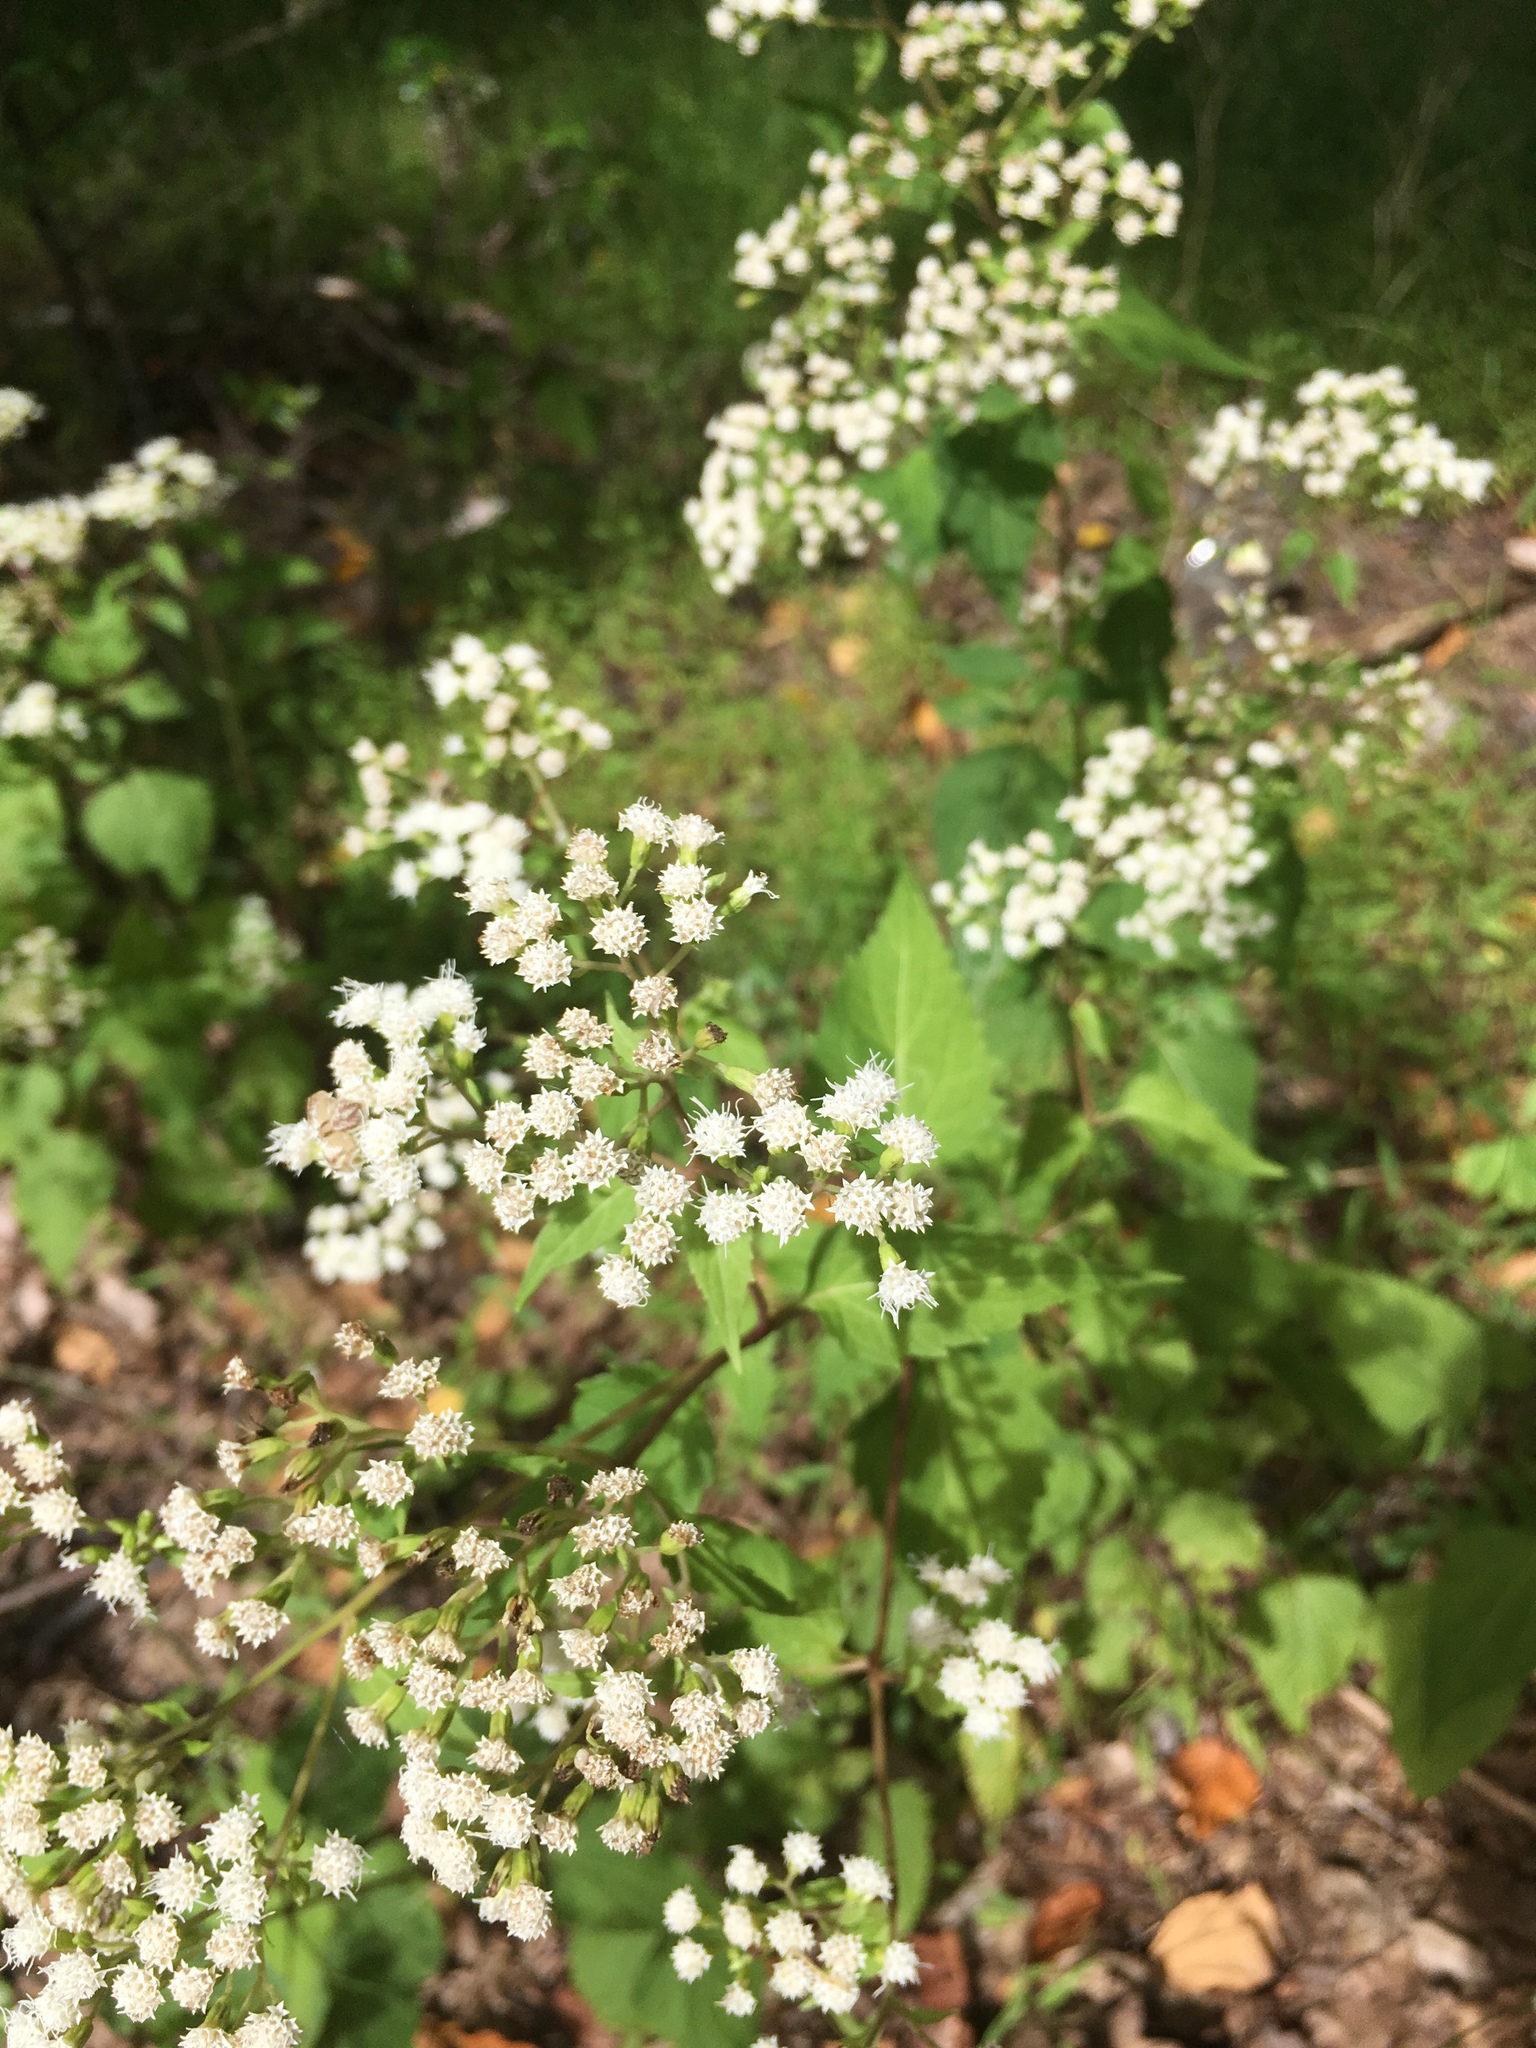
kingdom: Plantae
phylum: Tracheophyta
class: Magnoliopsida
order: Asterales
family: Asteraceae
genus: Ageratina
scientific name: Ageratina altissima
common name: White snakeroot
